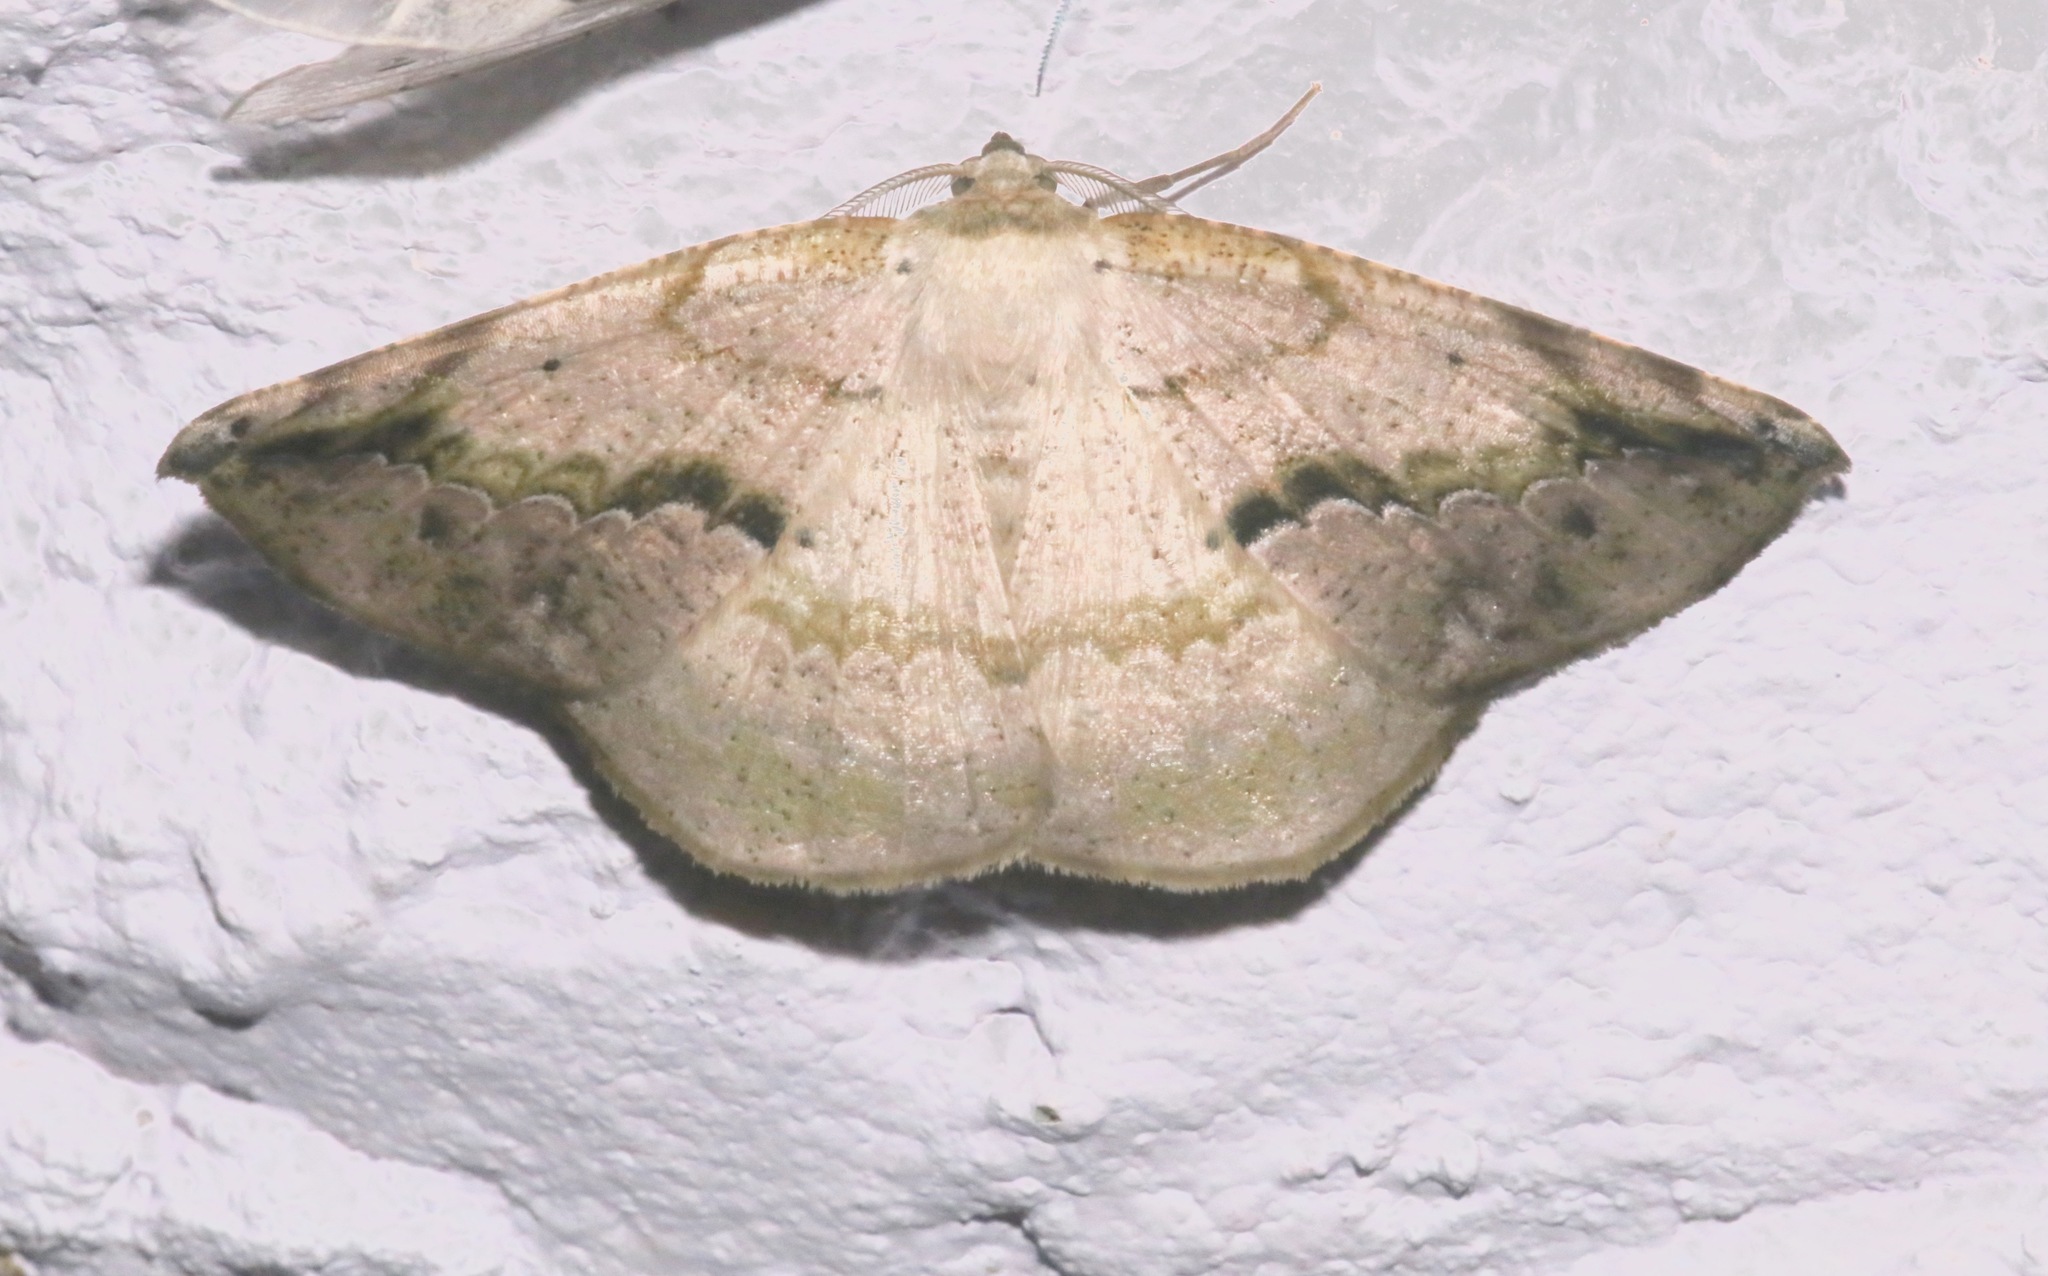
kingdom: Animalia
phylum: Arthropoda
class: Insecta
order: Lepidoptera
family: Geometridae
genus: Eusarca
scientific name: Eusarca nemora
